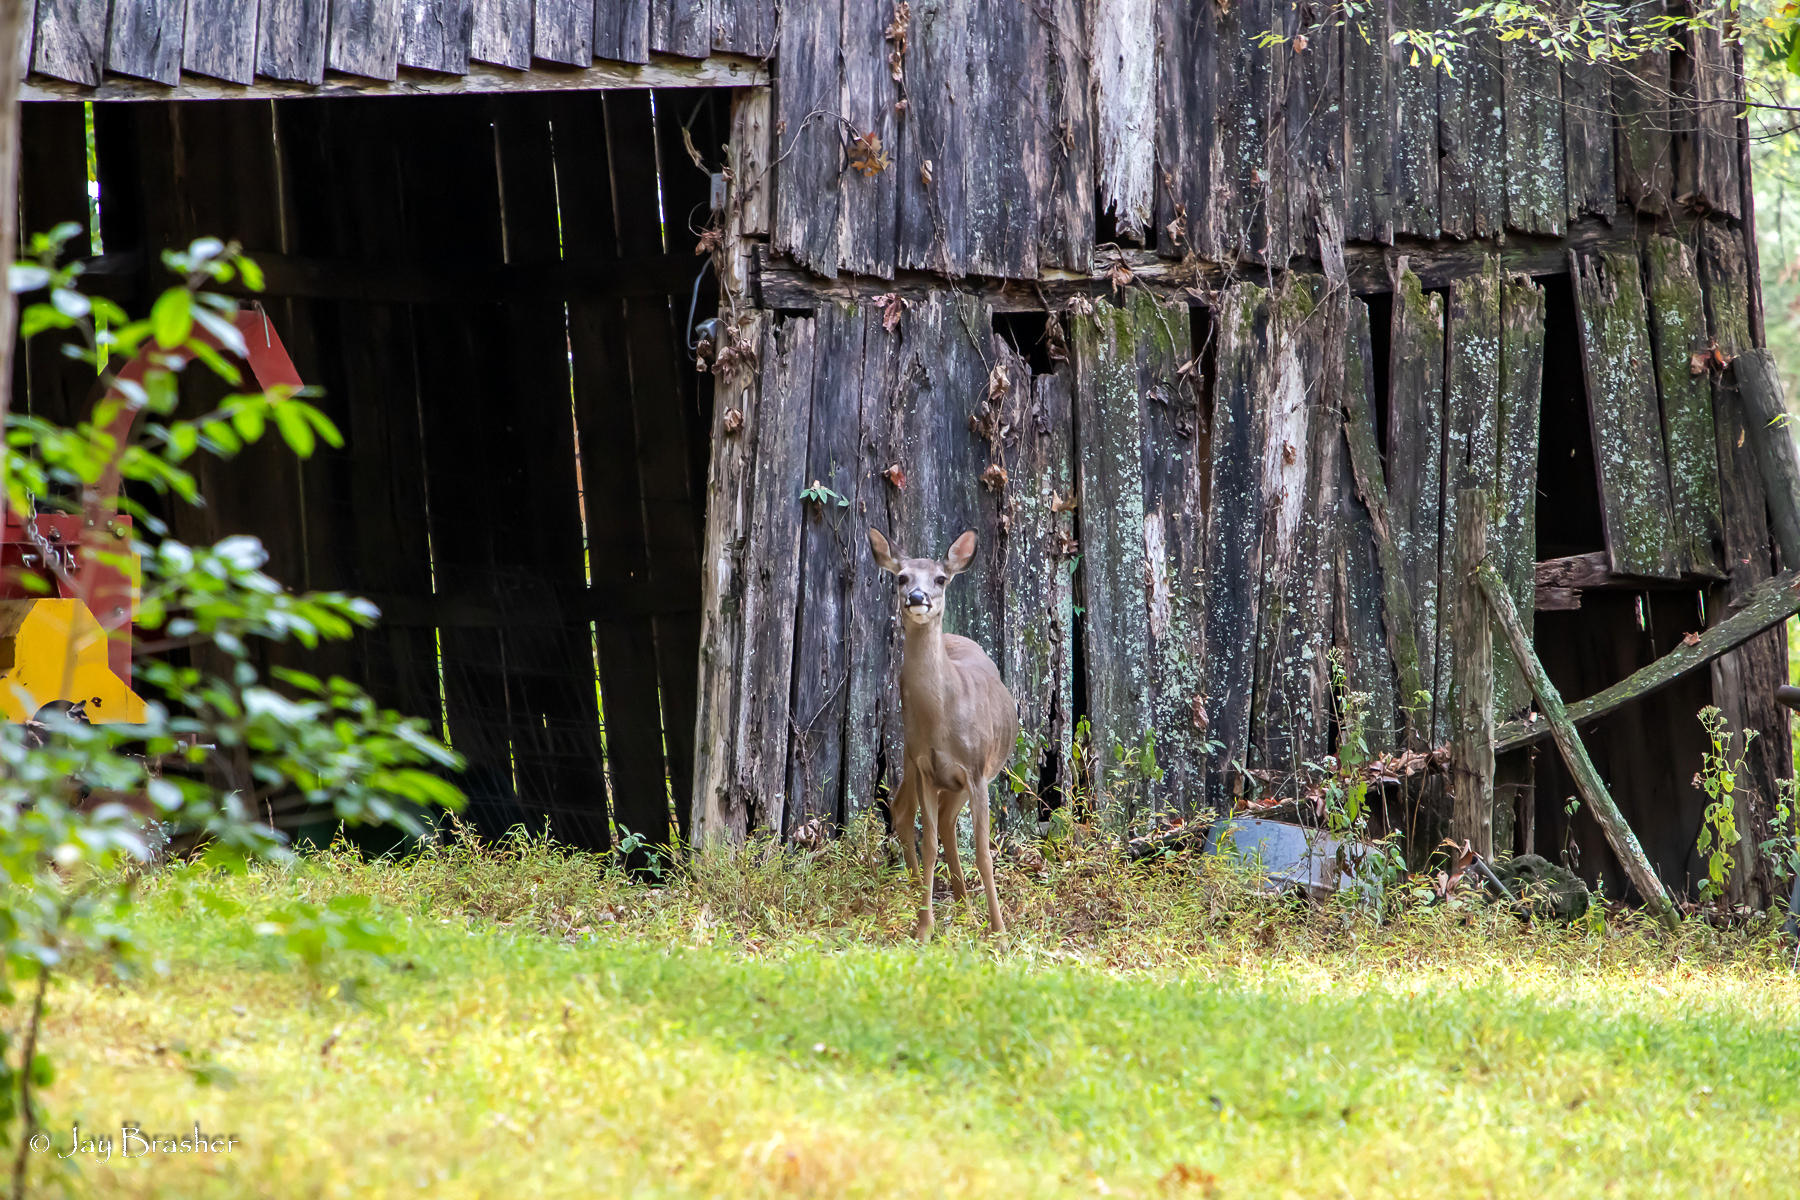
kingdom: Animalia
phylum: Chordata
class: Mammalia
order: Artiodactyla
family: Cervidae
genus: Odocoileus
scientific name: Odocoileus virginianus
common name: White-tailed deer
